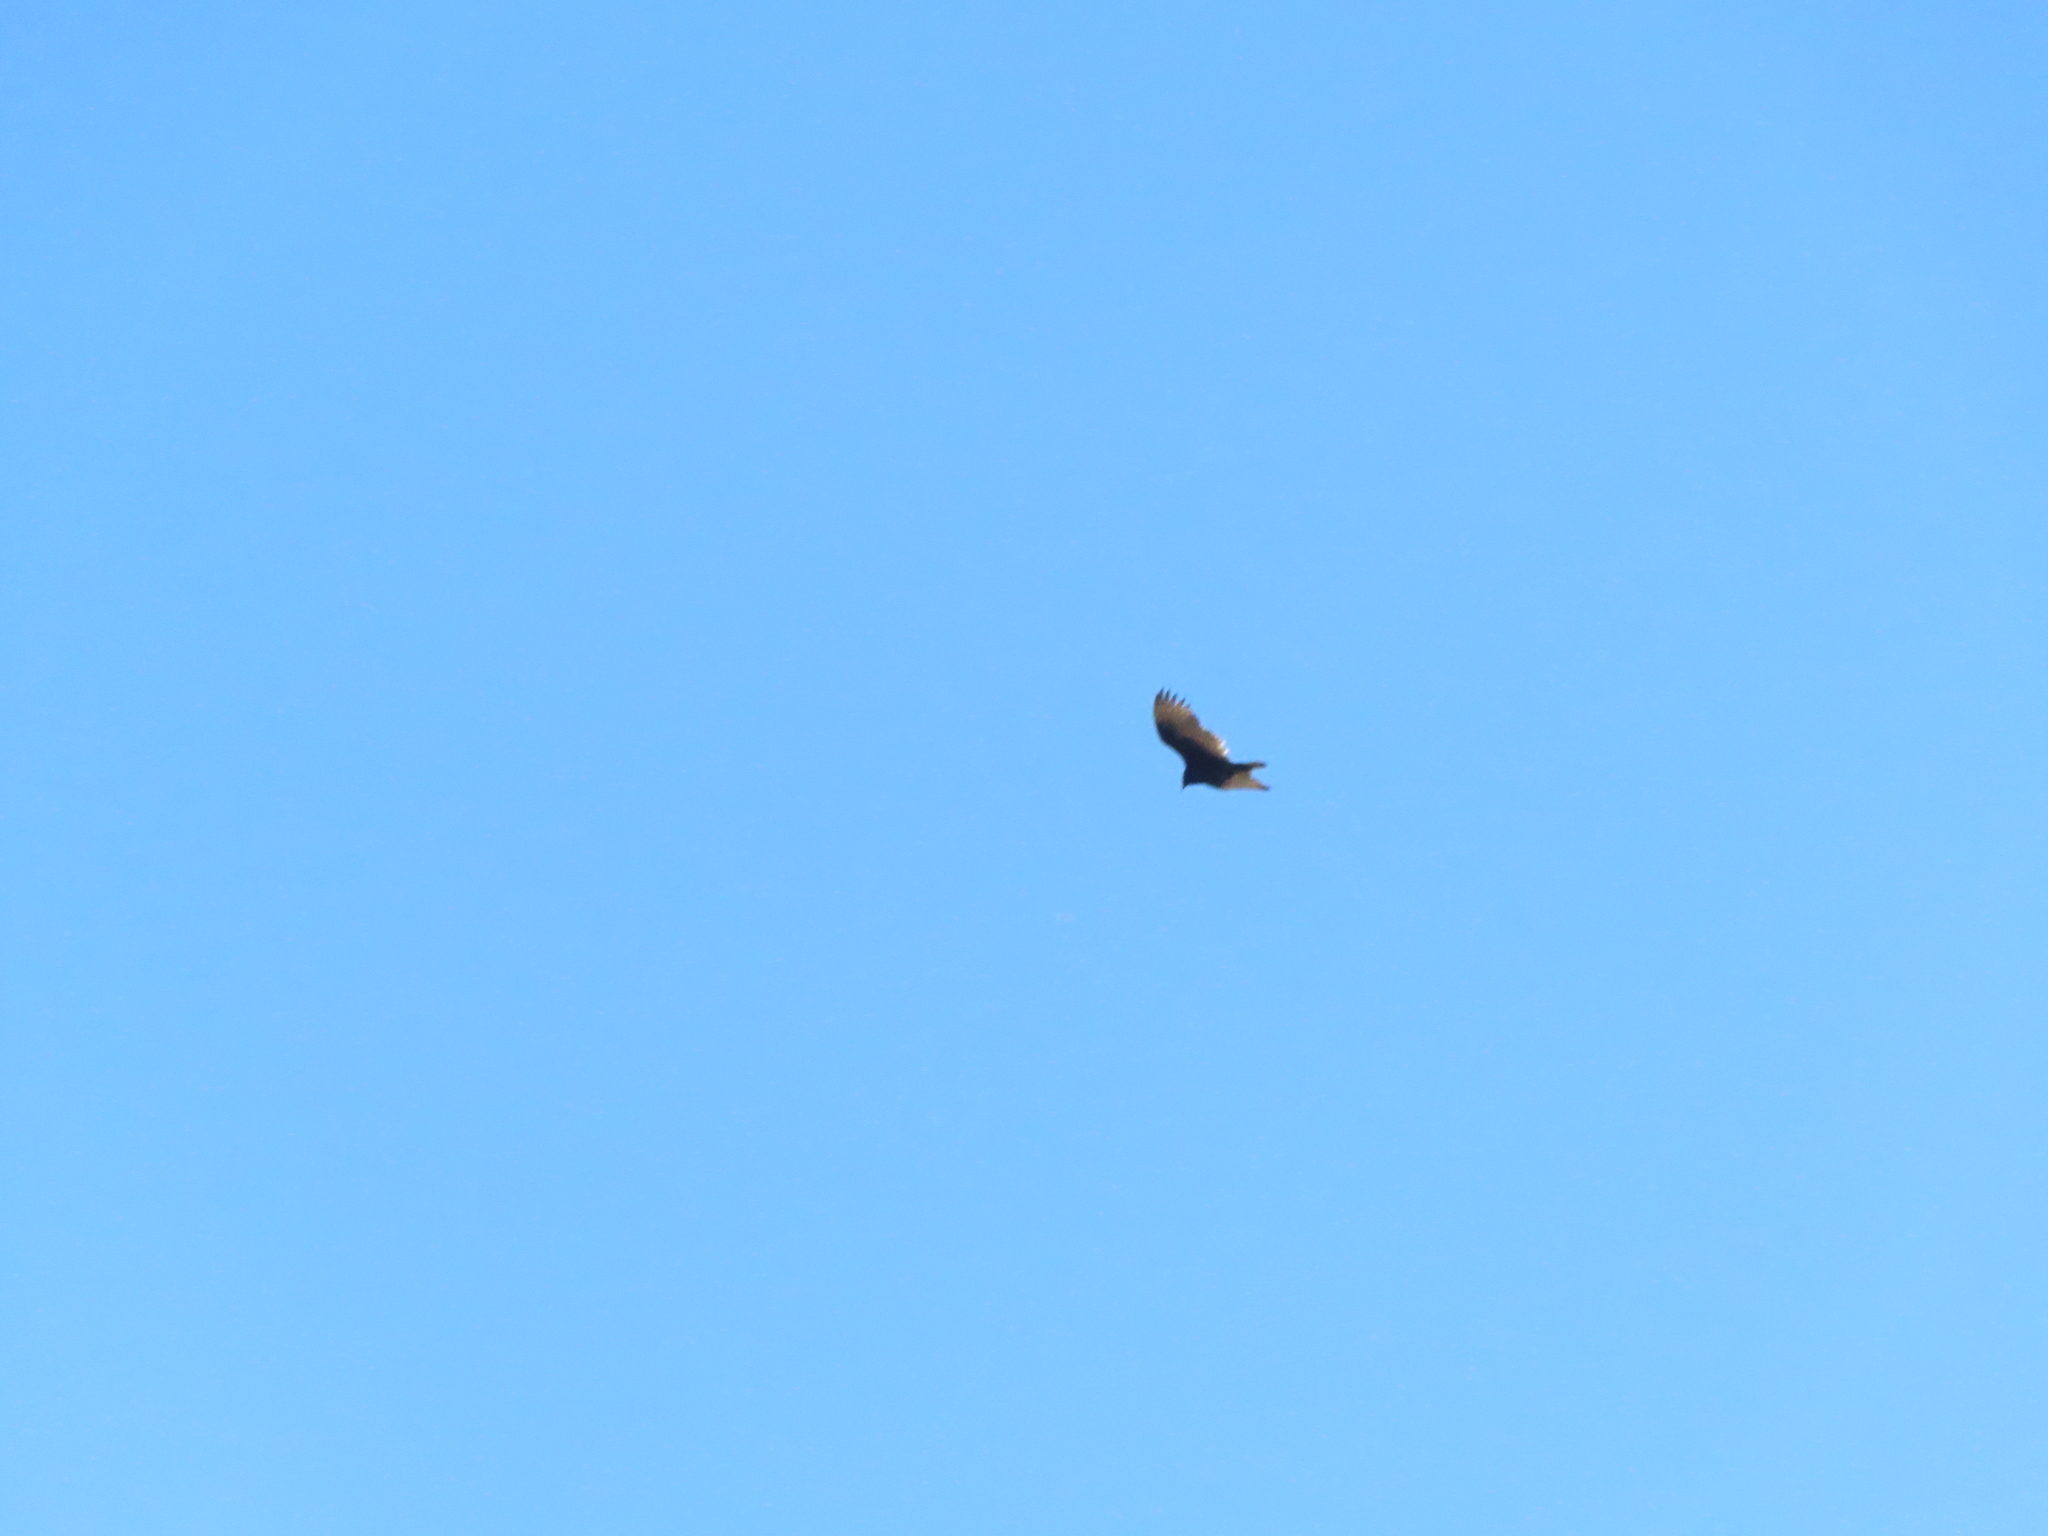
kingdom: Animalia
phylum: Chordata
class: Aves
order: Accipitriformes
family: Cathartidae
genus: Cathartes
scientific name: Cathartes aura
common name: Turkey vulture
